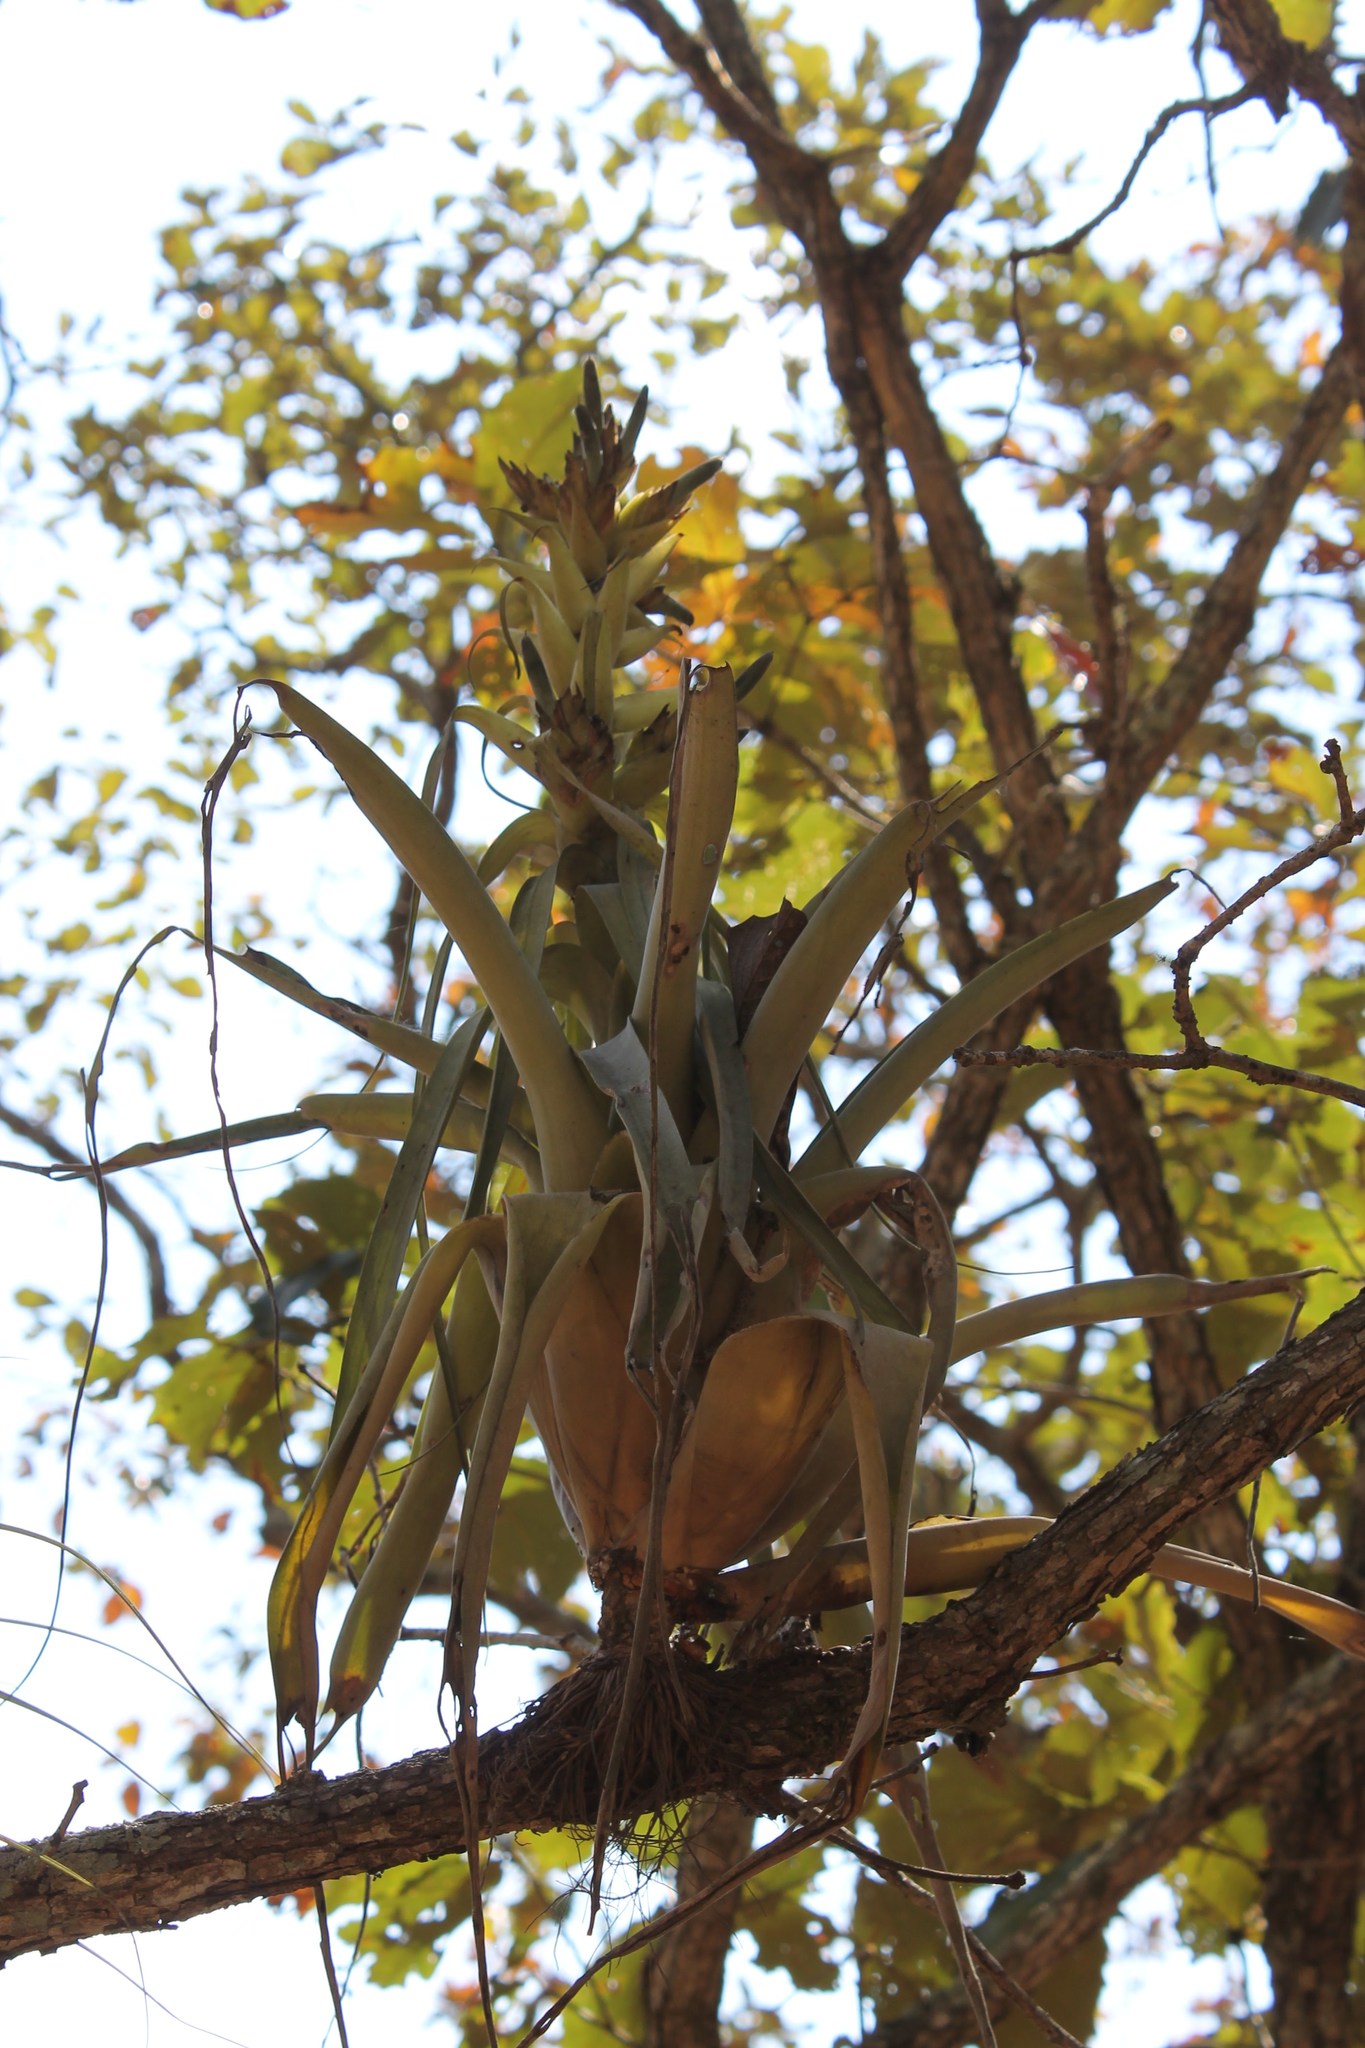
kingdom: Plantae
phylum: Tracheophyta
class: Liliopsida
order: Poales
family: Bromeliaceae
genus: Tillandsia
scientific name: Tillandsia bourgaei
